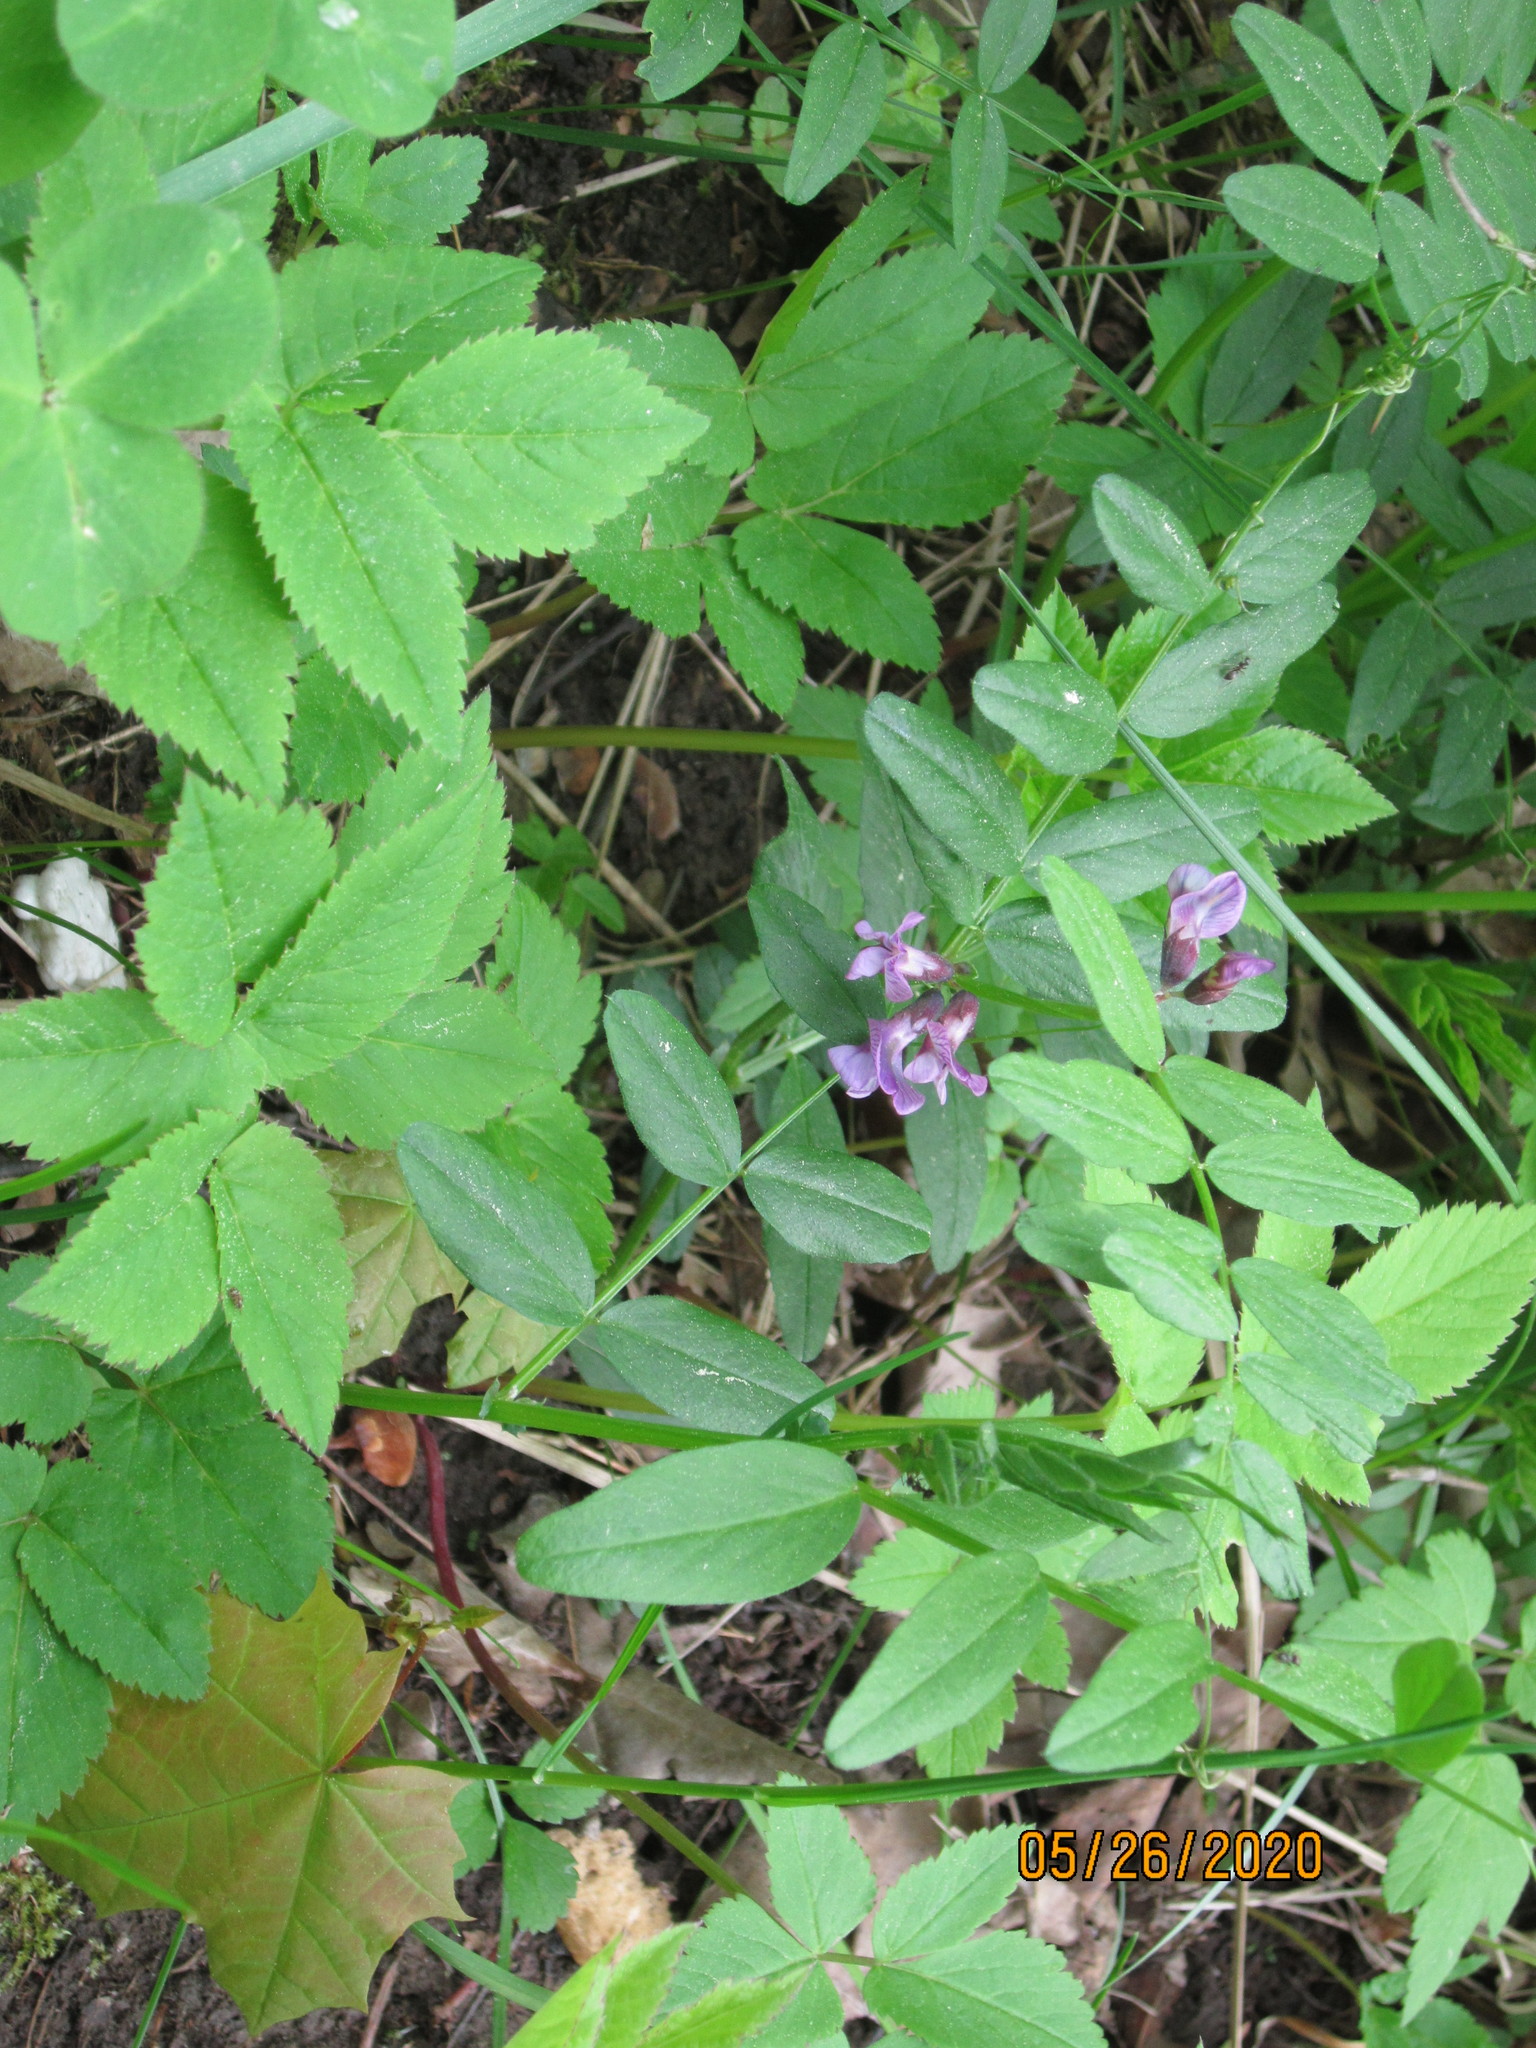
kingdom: Plantae
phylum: Tracheophyta
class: Magnoliopsida
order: Fabales
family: Fabaceae
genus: Vicia
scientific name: Vicia sepium
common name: Bush vetch
